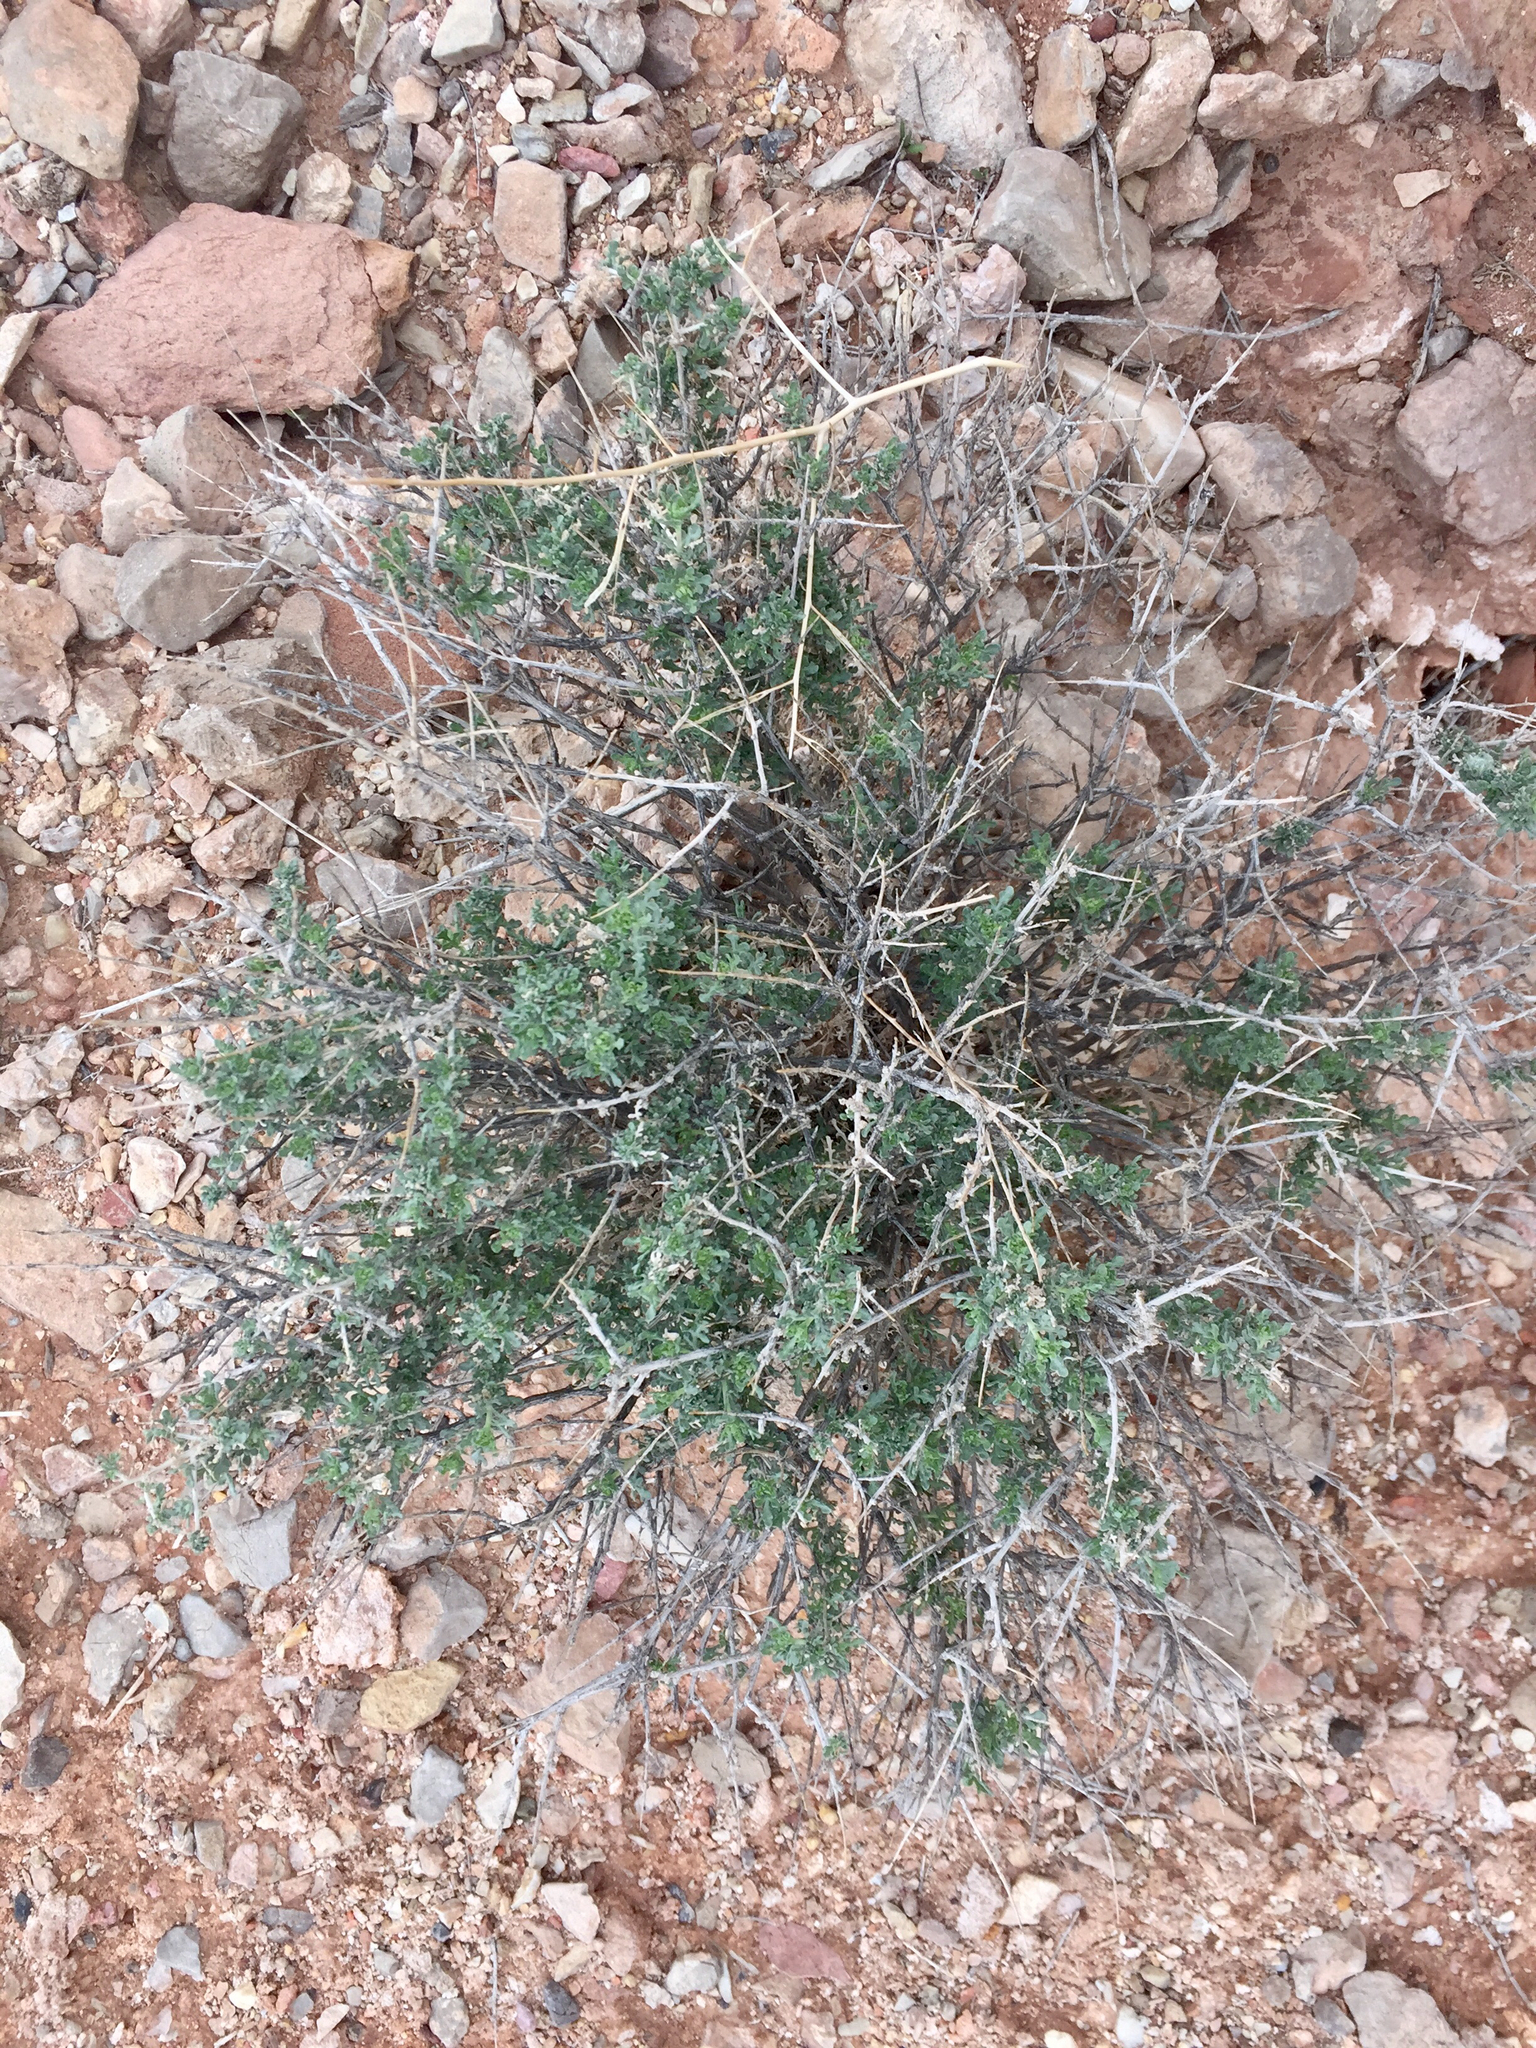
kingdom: Plantae
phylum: Tracheophyta
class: Magnoliopsida
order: Asterales
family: Asteraceae
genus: Ambrosia
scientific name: Ambrosia dumosa
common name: Bur-sage
